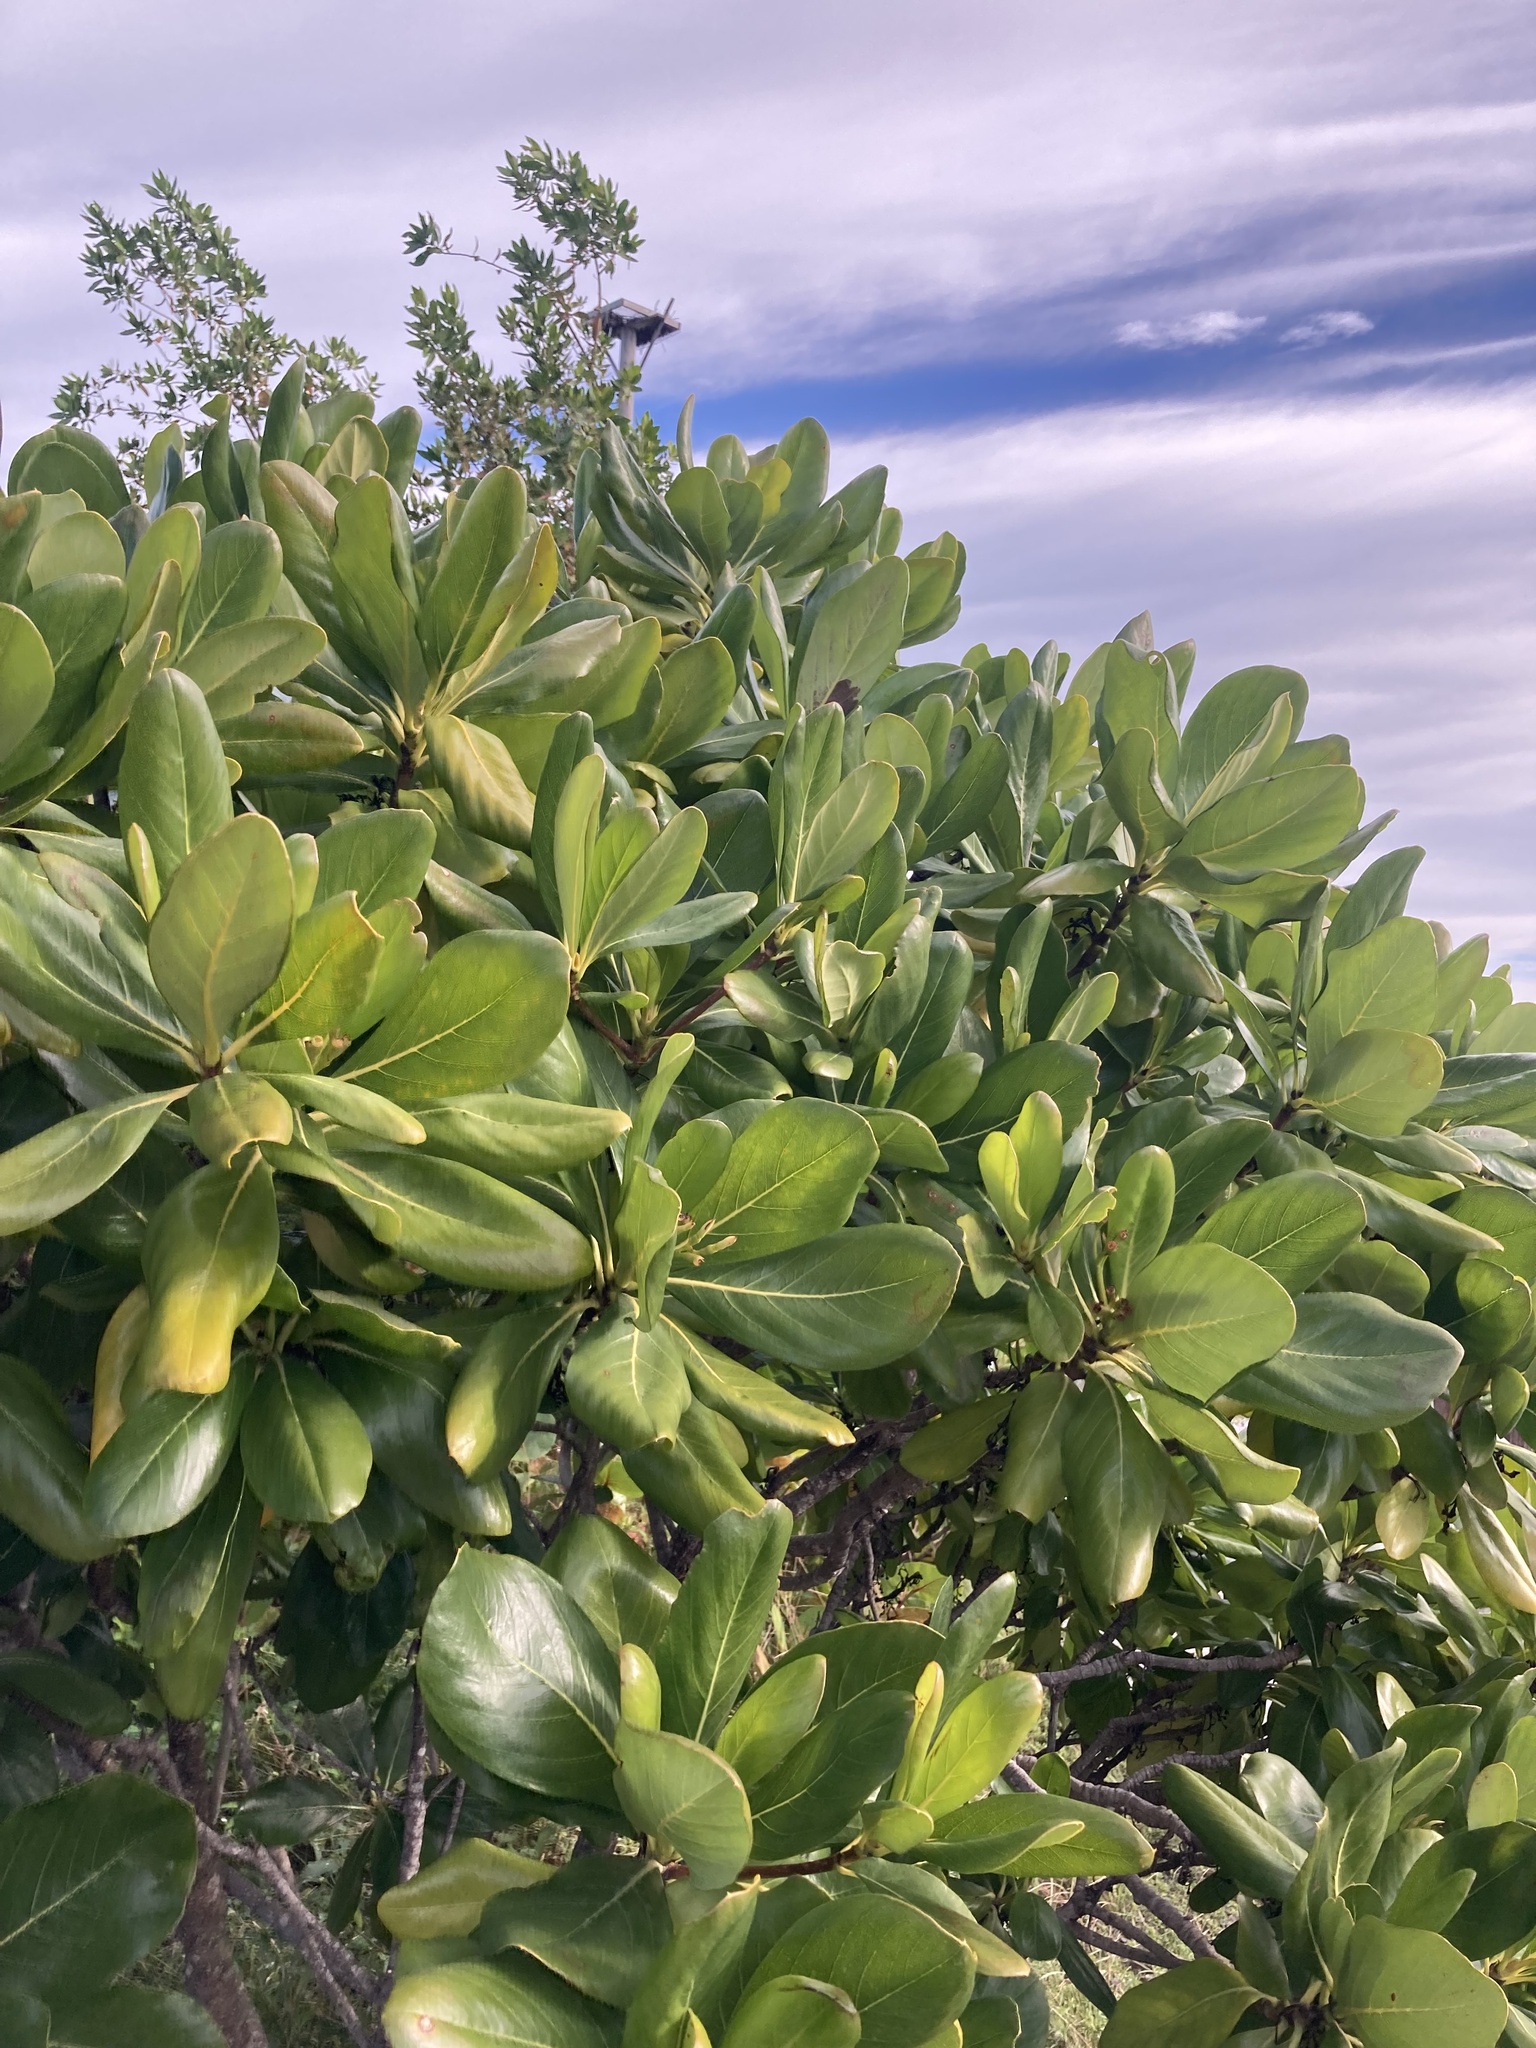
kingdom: Plantae
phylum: Tracheophyta
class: Magnoliopsida
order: Gentianales
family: Rubiaceae
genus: Casasia
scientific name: Casasia clusiifolia
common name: Seven-year apple
